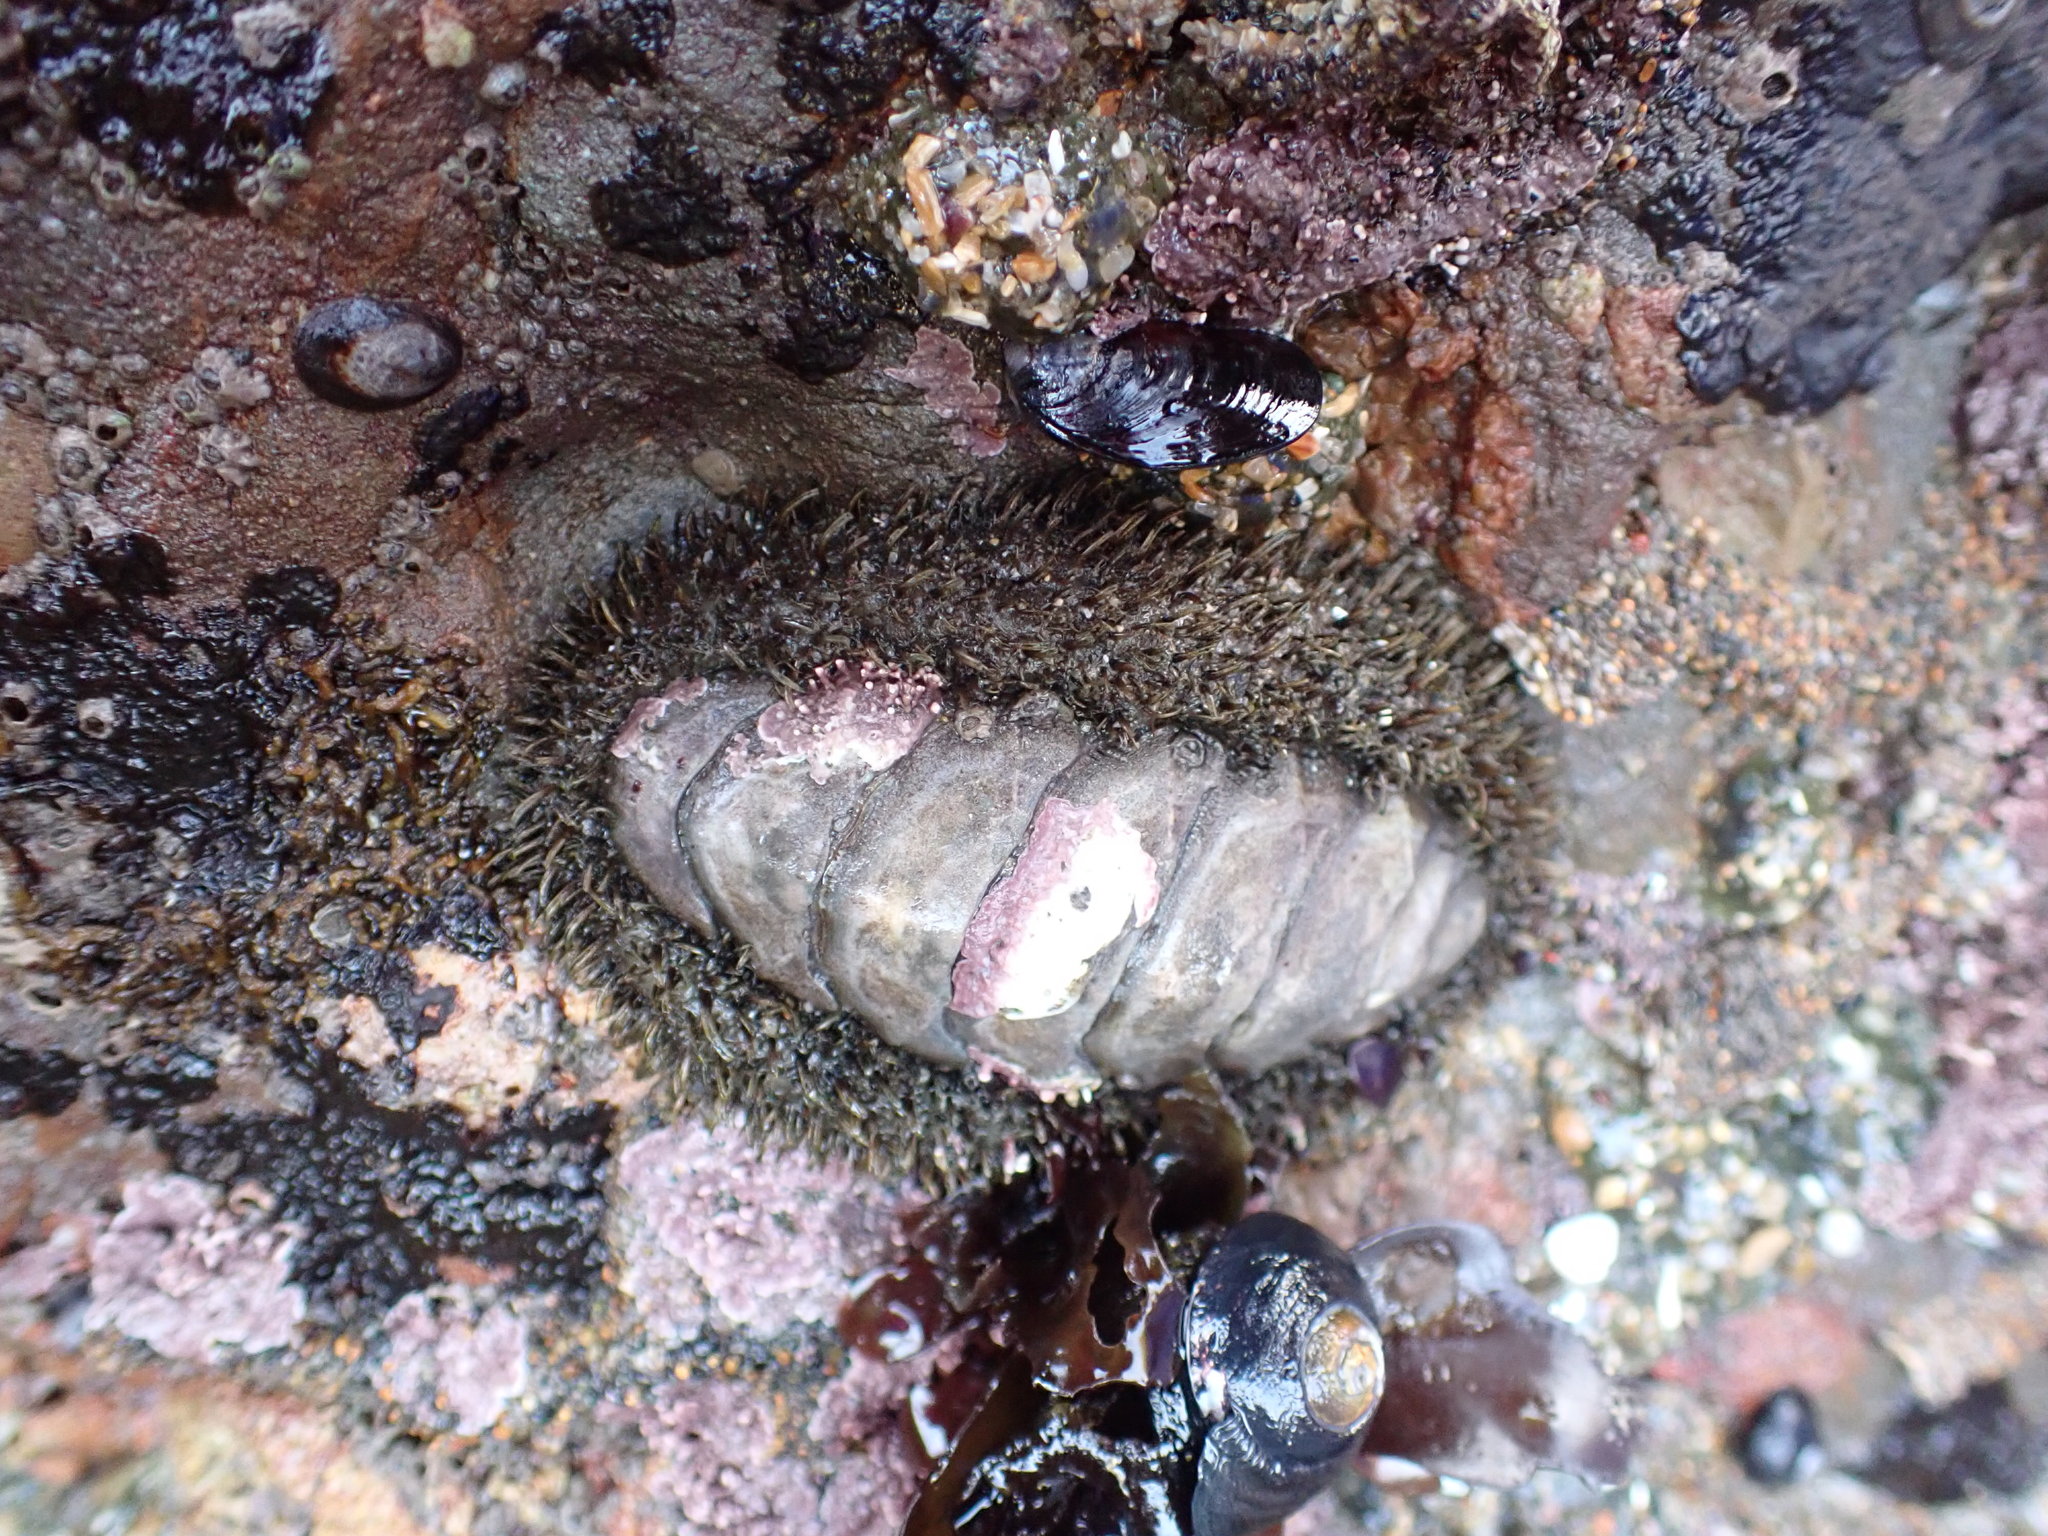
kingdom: Animalia
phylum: Mollusca
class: Polyplacophora
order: Chitonida
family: Mopaliidae
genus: Mopalia
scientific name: Mopalia muscosa
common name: Mossy chiton
